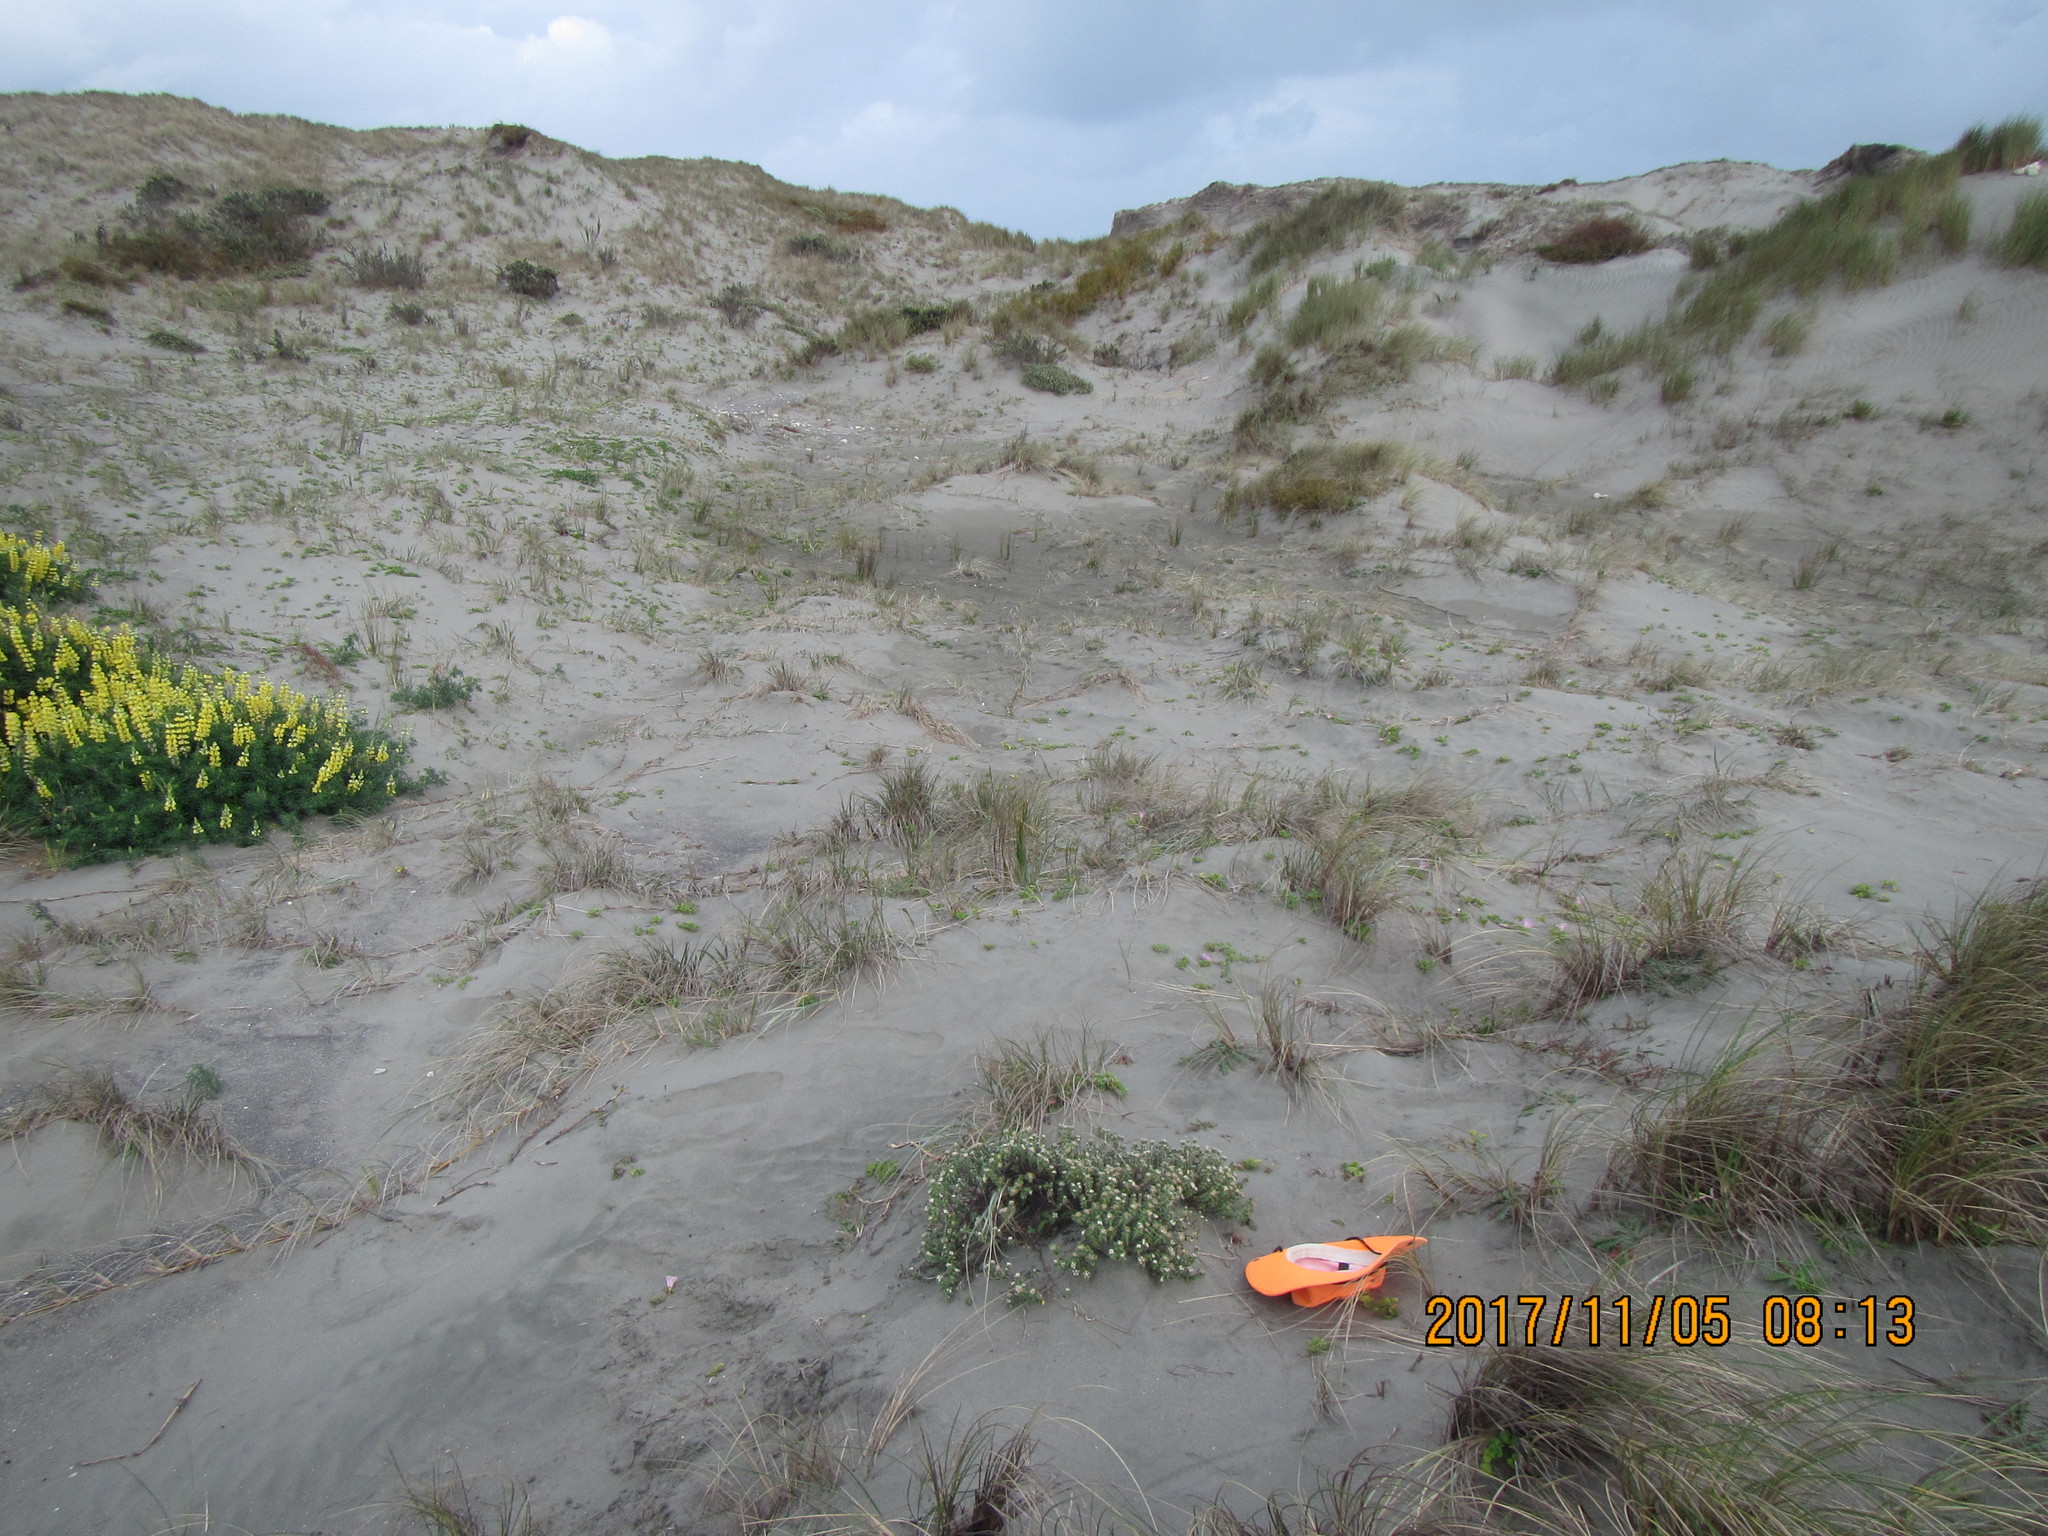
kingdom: Plantae
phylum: Tracheophyta
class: Magnoliopsida
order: Malvales
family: Thymelaeaceae
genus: Pimelea
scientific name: Pimelea villosa
